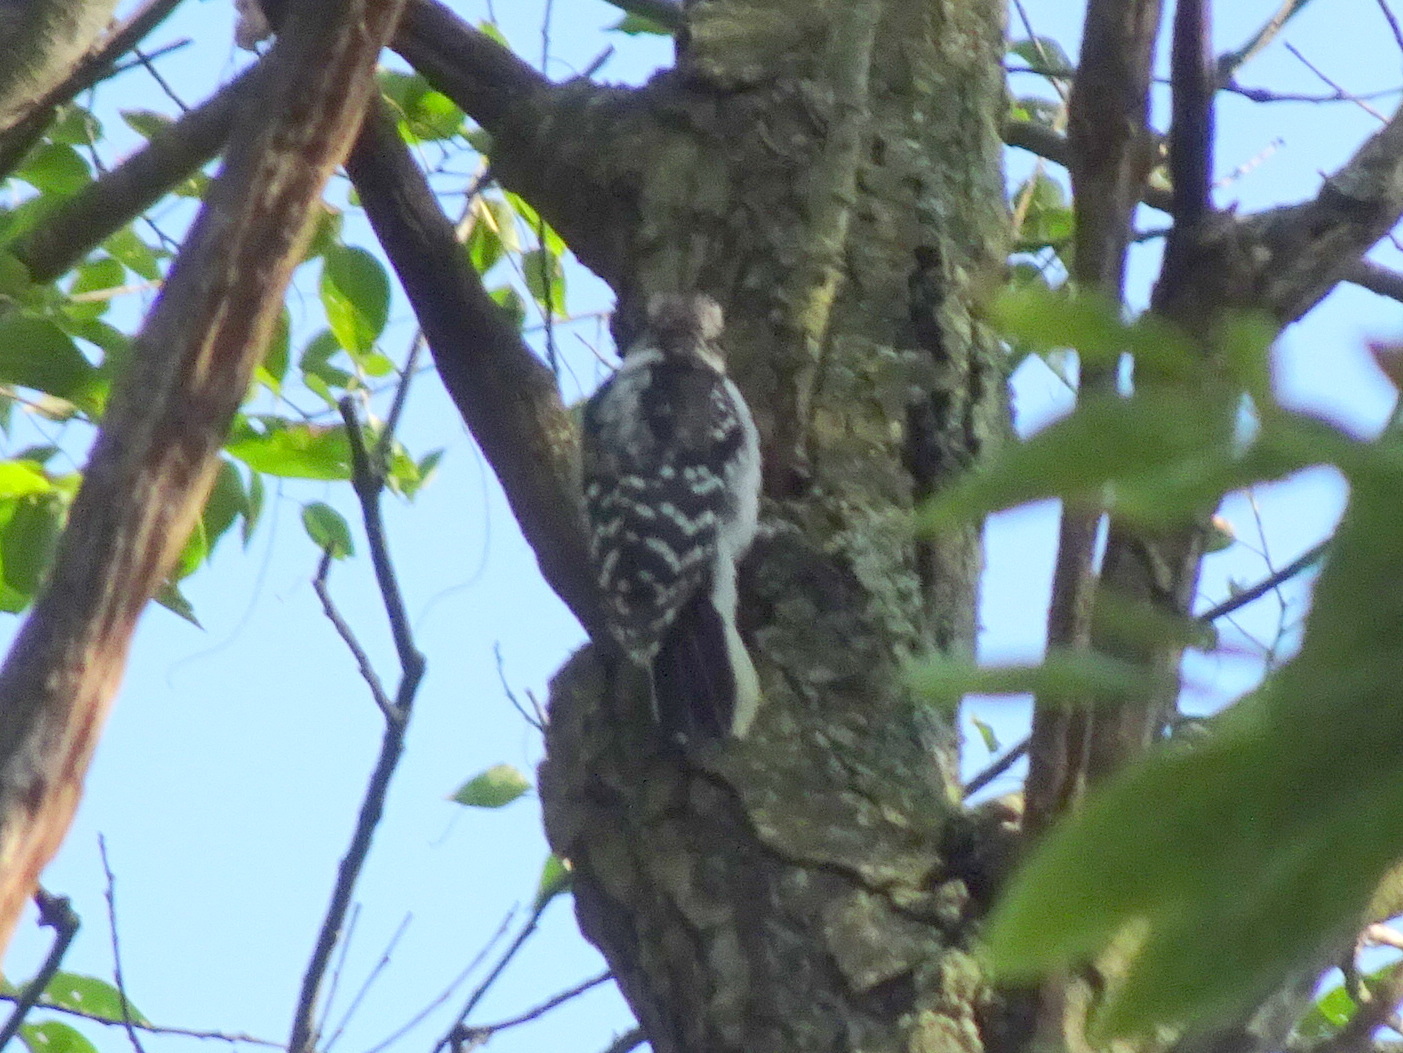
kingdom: Animalia
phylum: Chordata
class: Aves
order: Piciformes
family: Picidae
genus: Leuconotopicus
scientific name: Leuconotopicus villosus
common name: Hairy woodpecker
